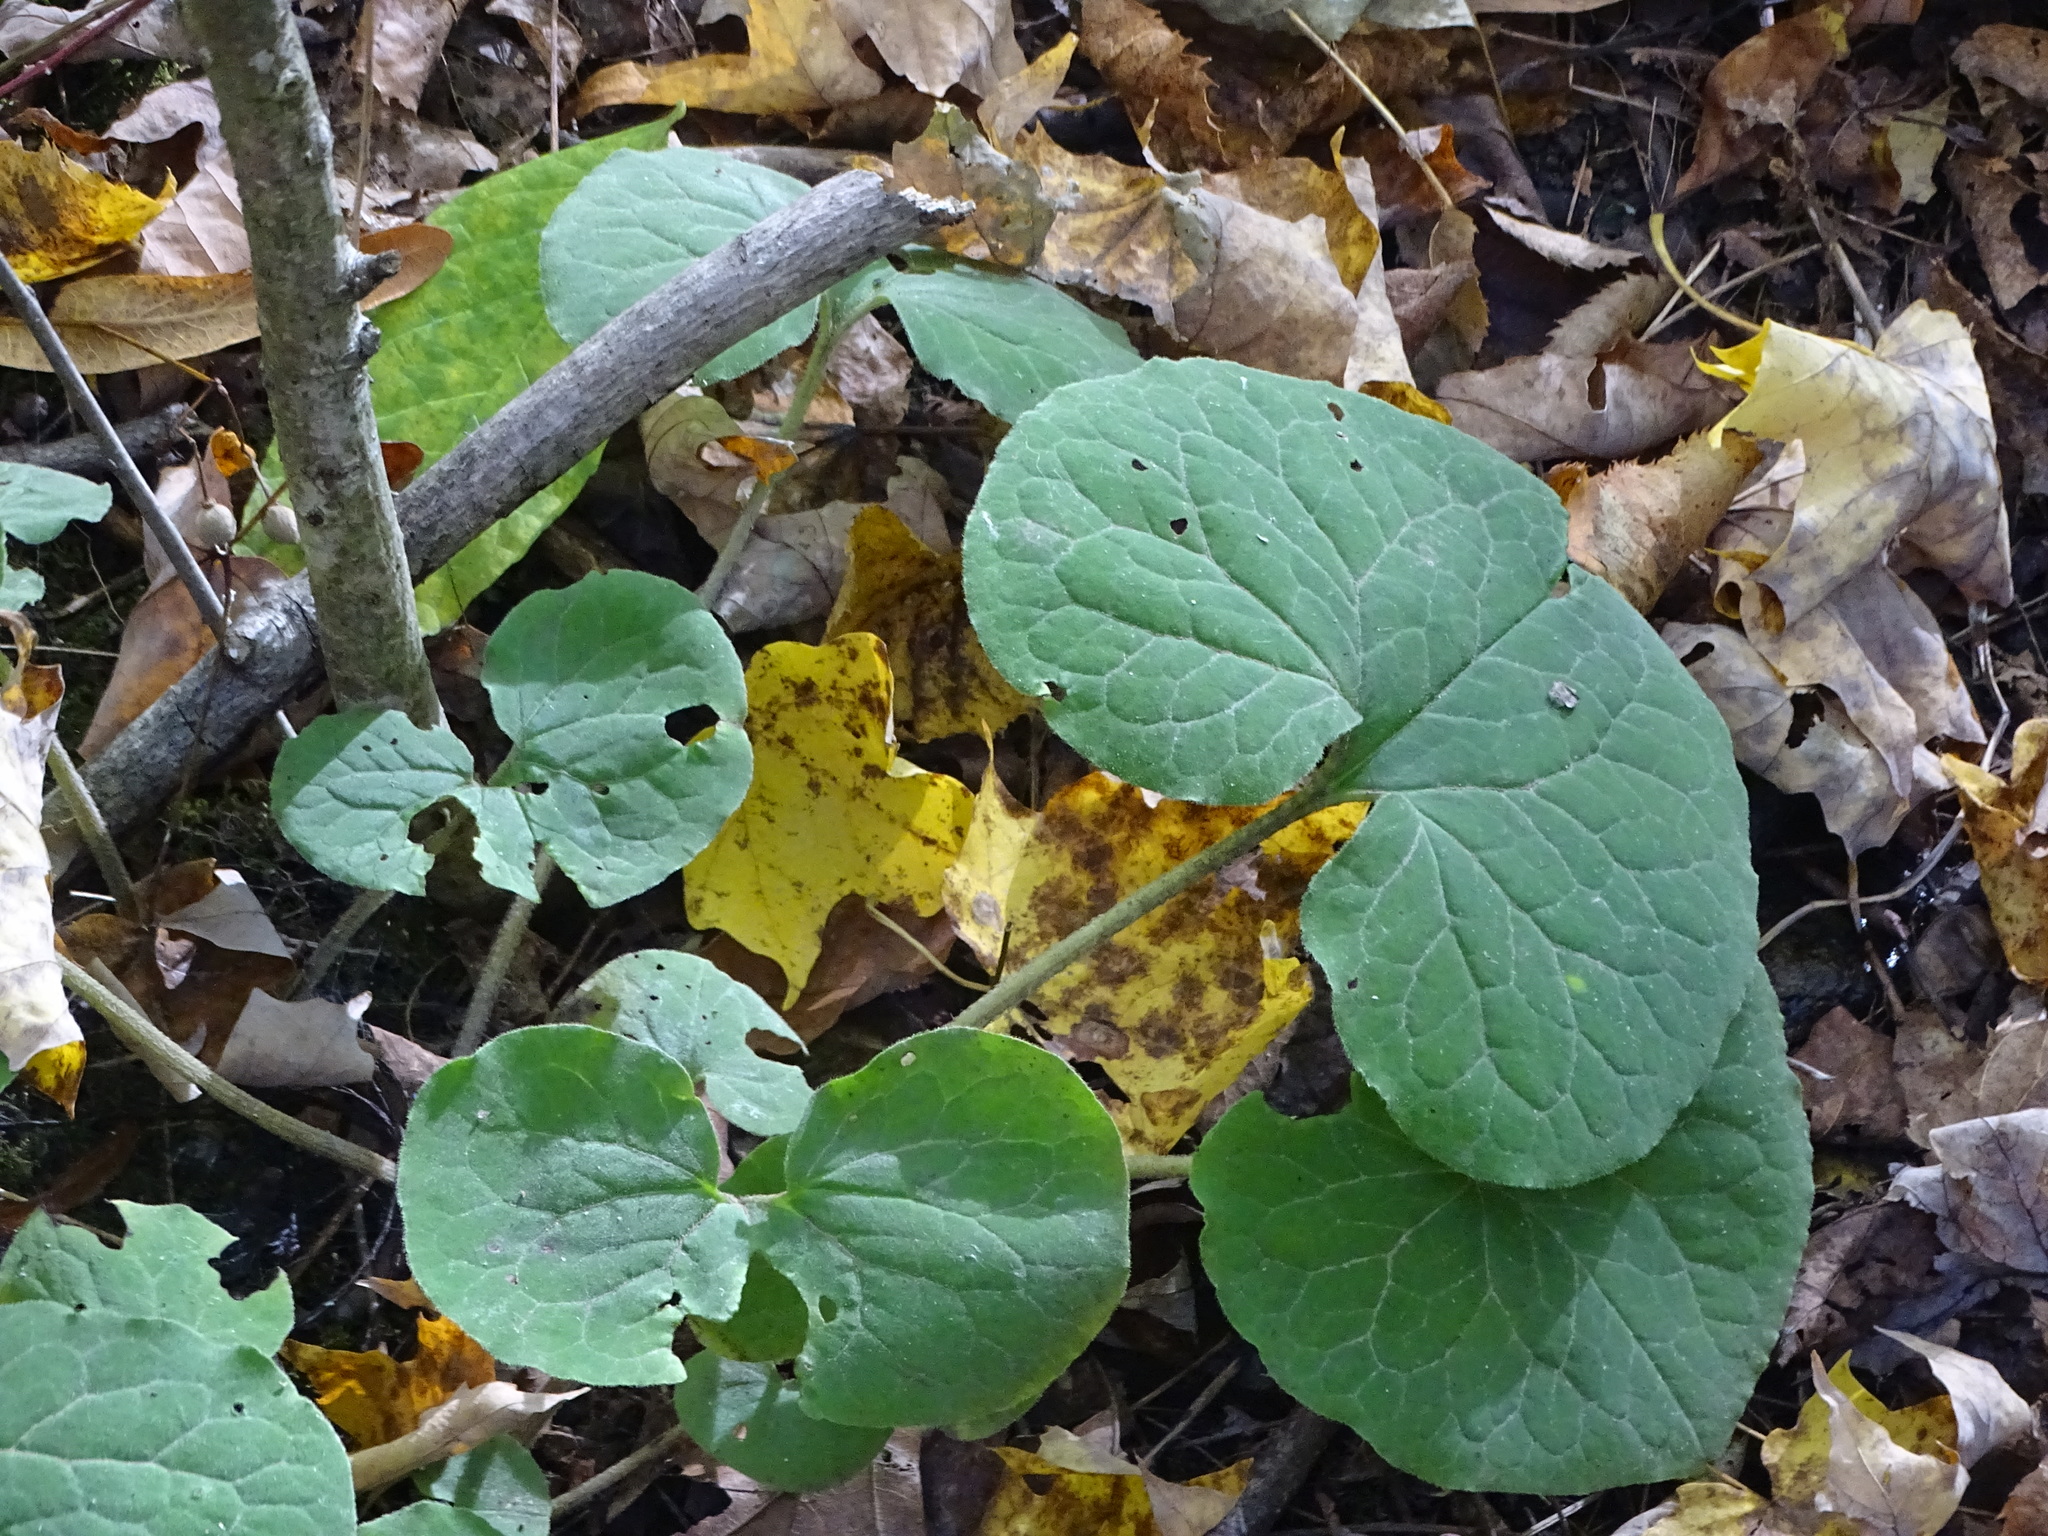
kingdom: Plantae
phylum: Tracheophyta
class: Magnoliopsida
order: Piperales
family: Aristolochiaceae
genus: Asarum
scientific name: Asarum canadense
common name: Wild ginger
